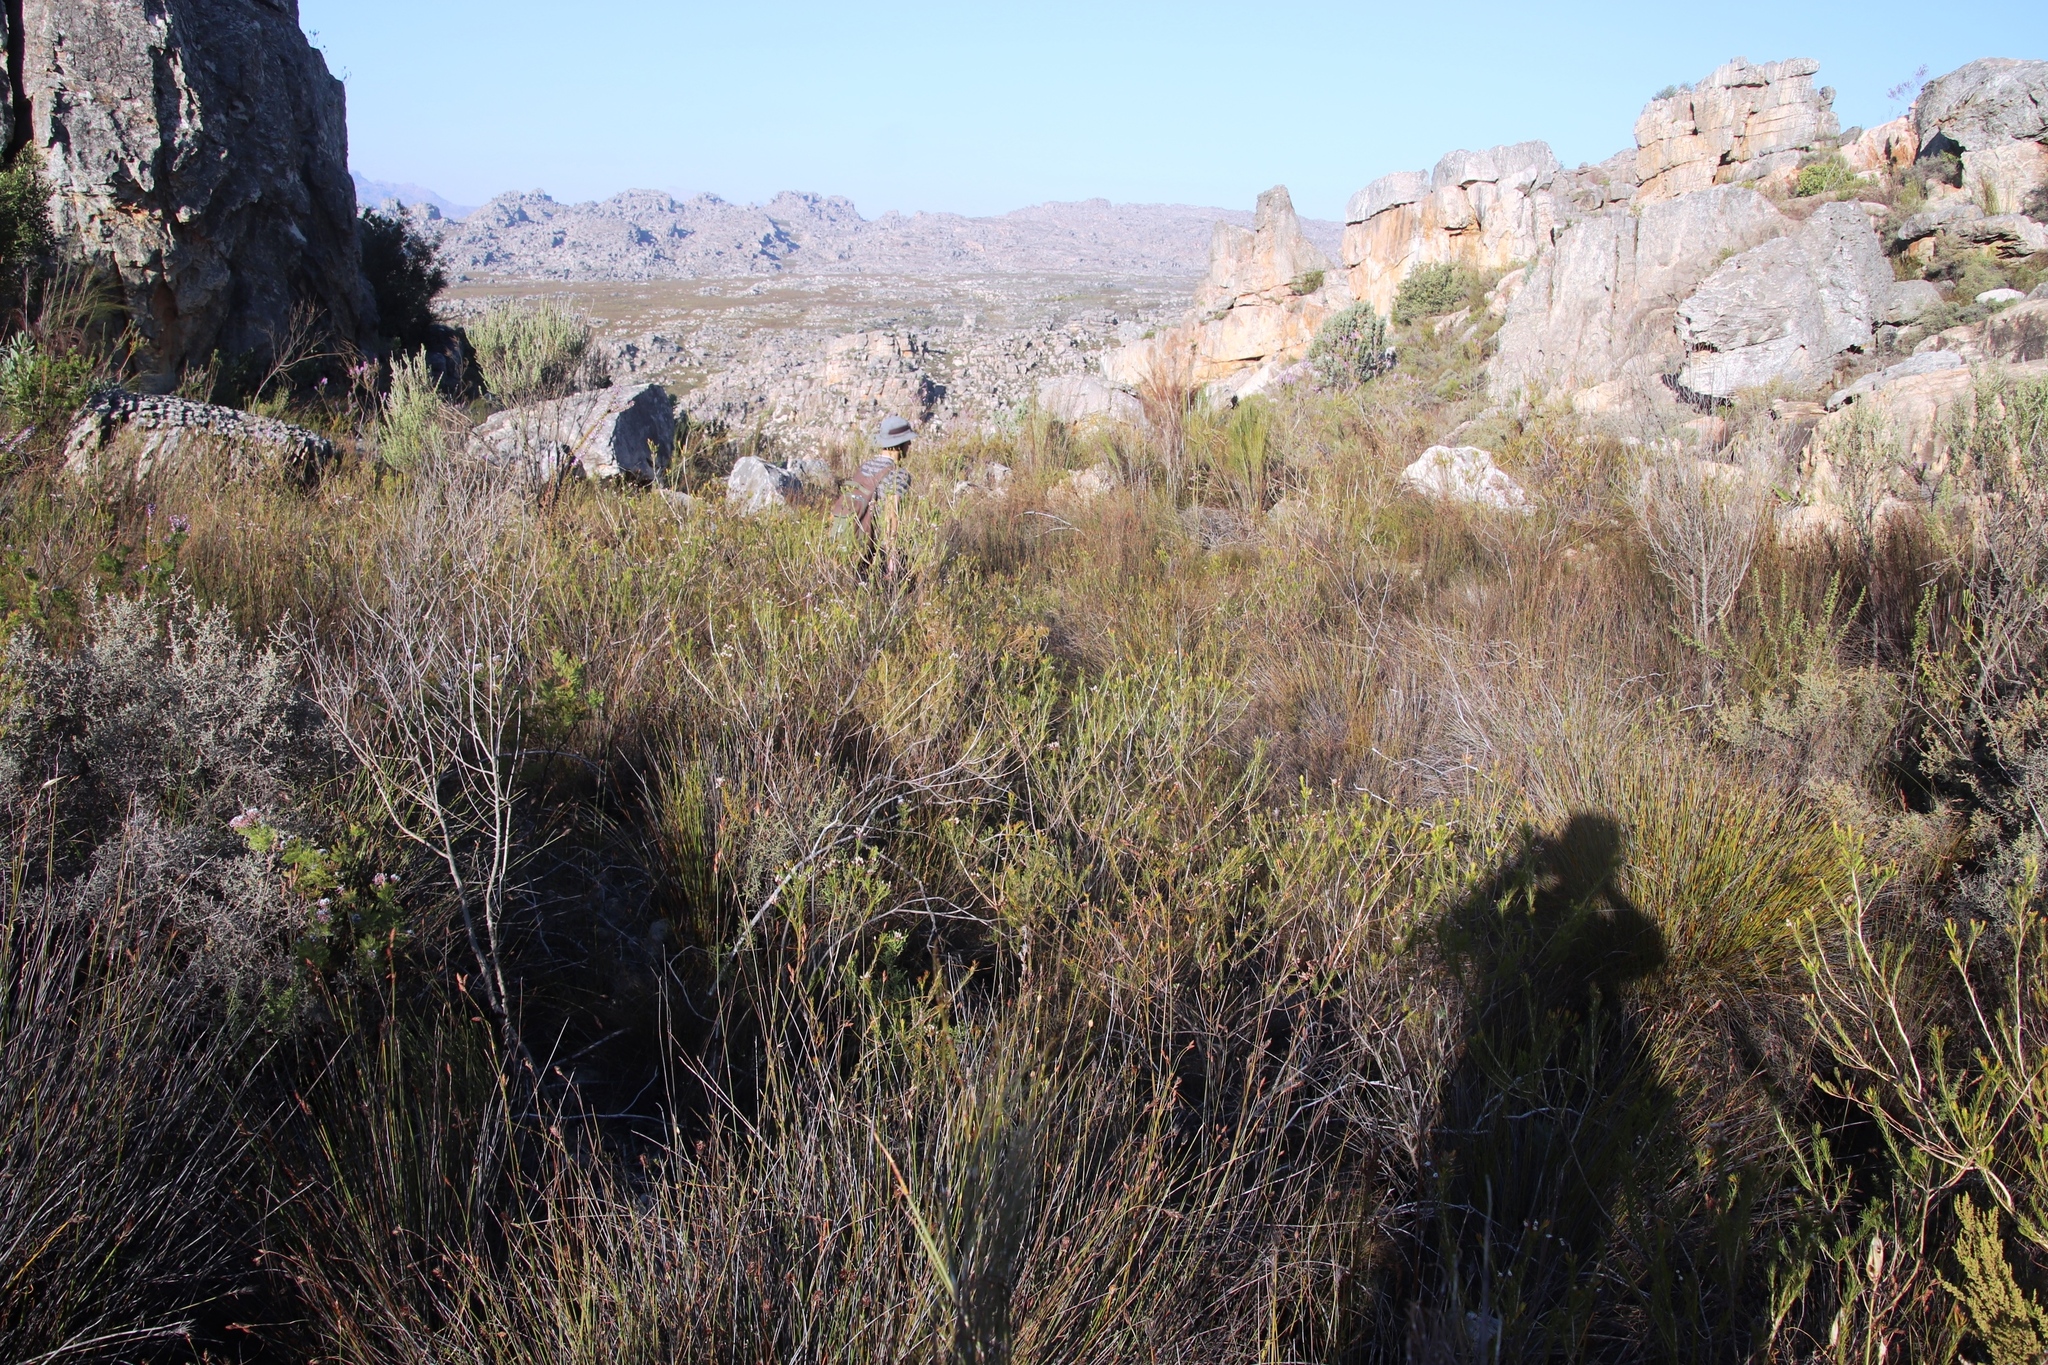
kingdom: Plantae
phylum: Tracheophyta
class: Magnoliopsida
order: Ericales
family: Ericaceae
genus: Erica
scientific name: Erica inflata
